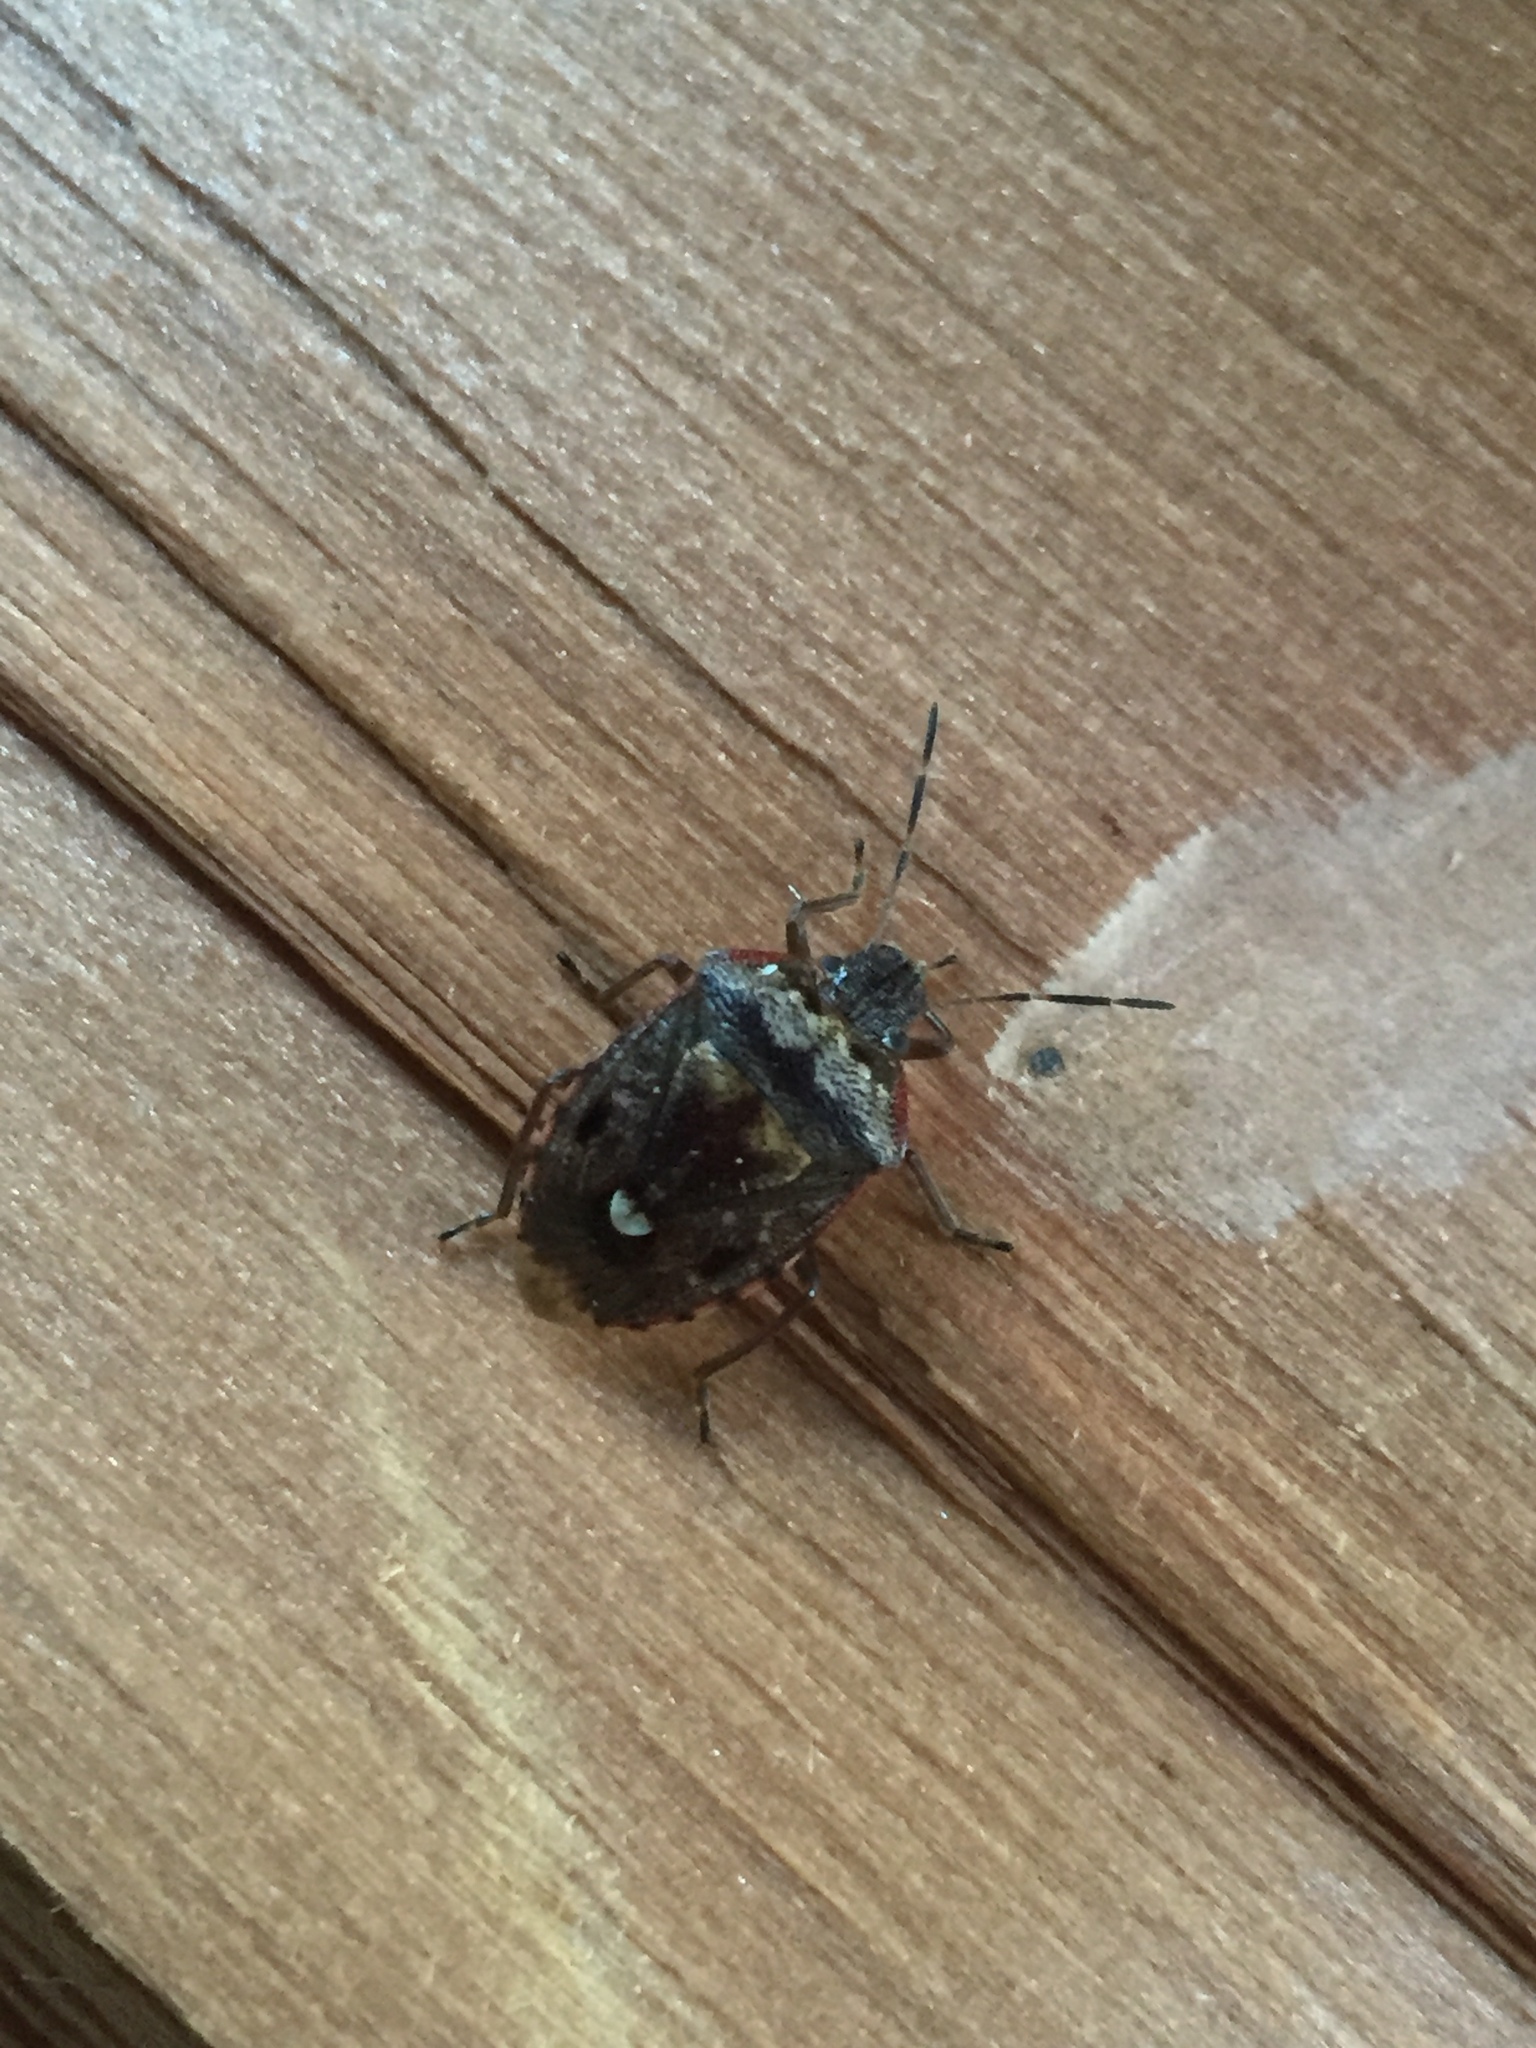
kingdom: Animalia
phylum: Arthropoda
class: Insecta
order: Hemiptera
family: Pentatomidae
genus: Banasa
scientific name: Banasa sordida
